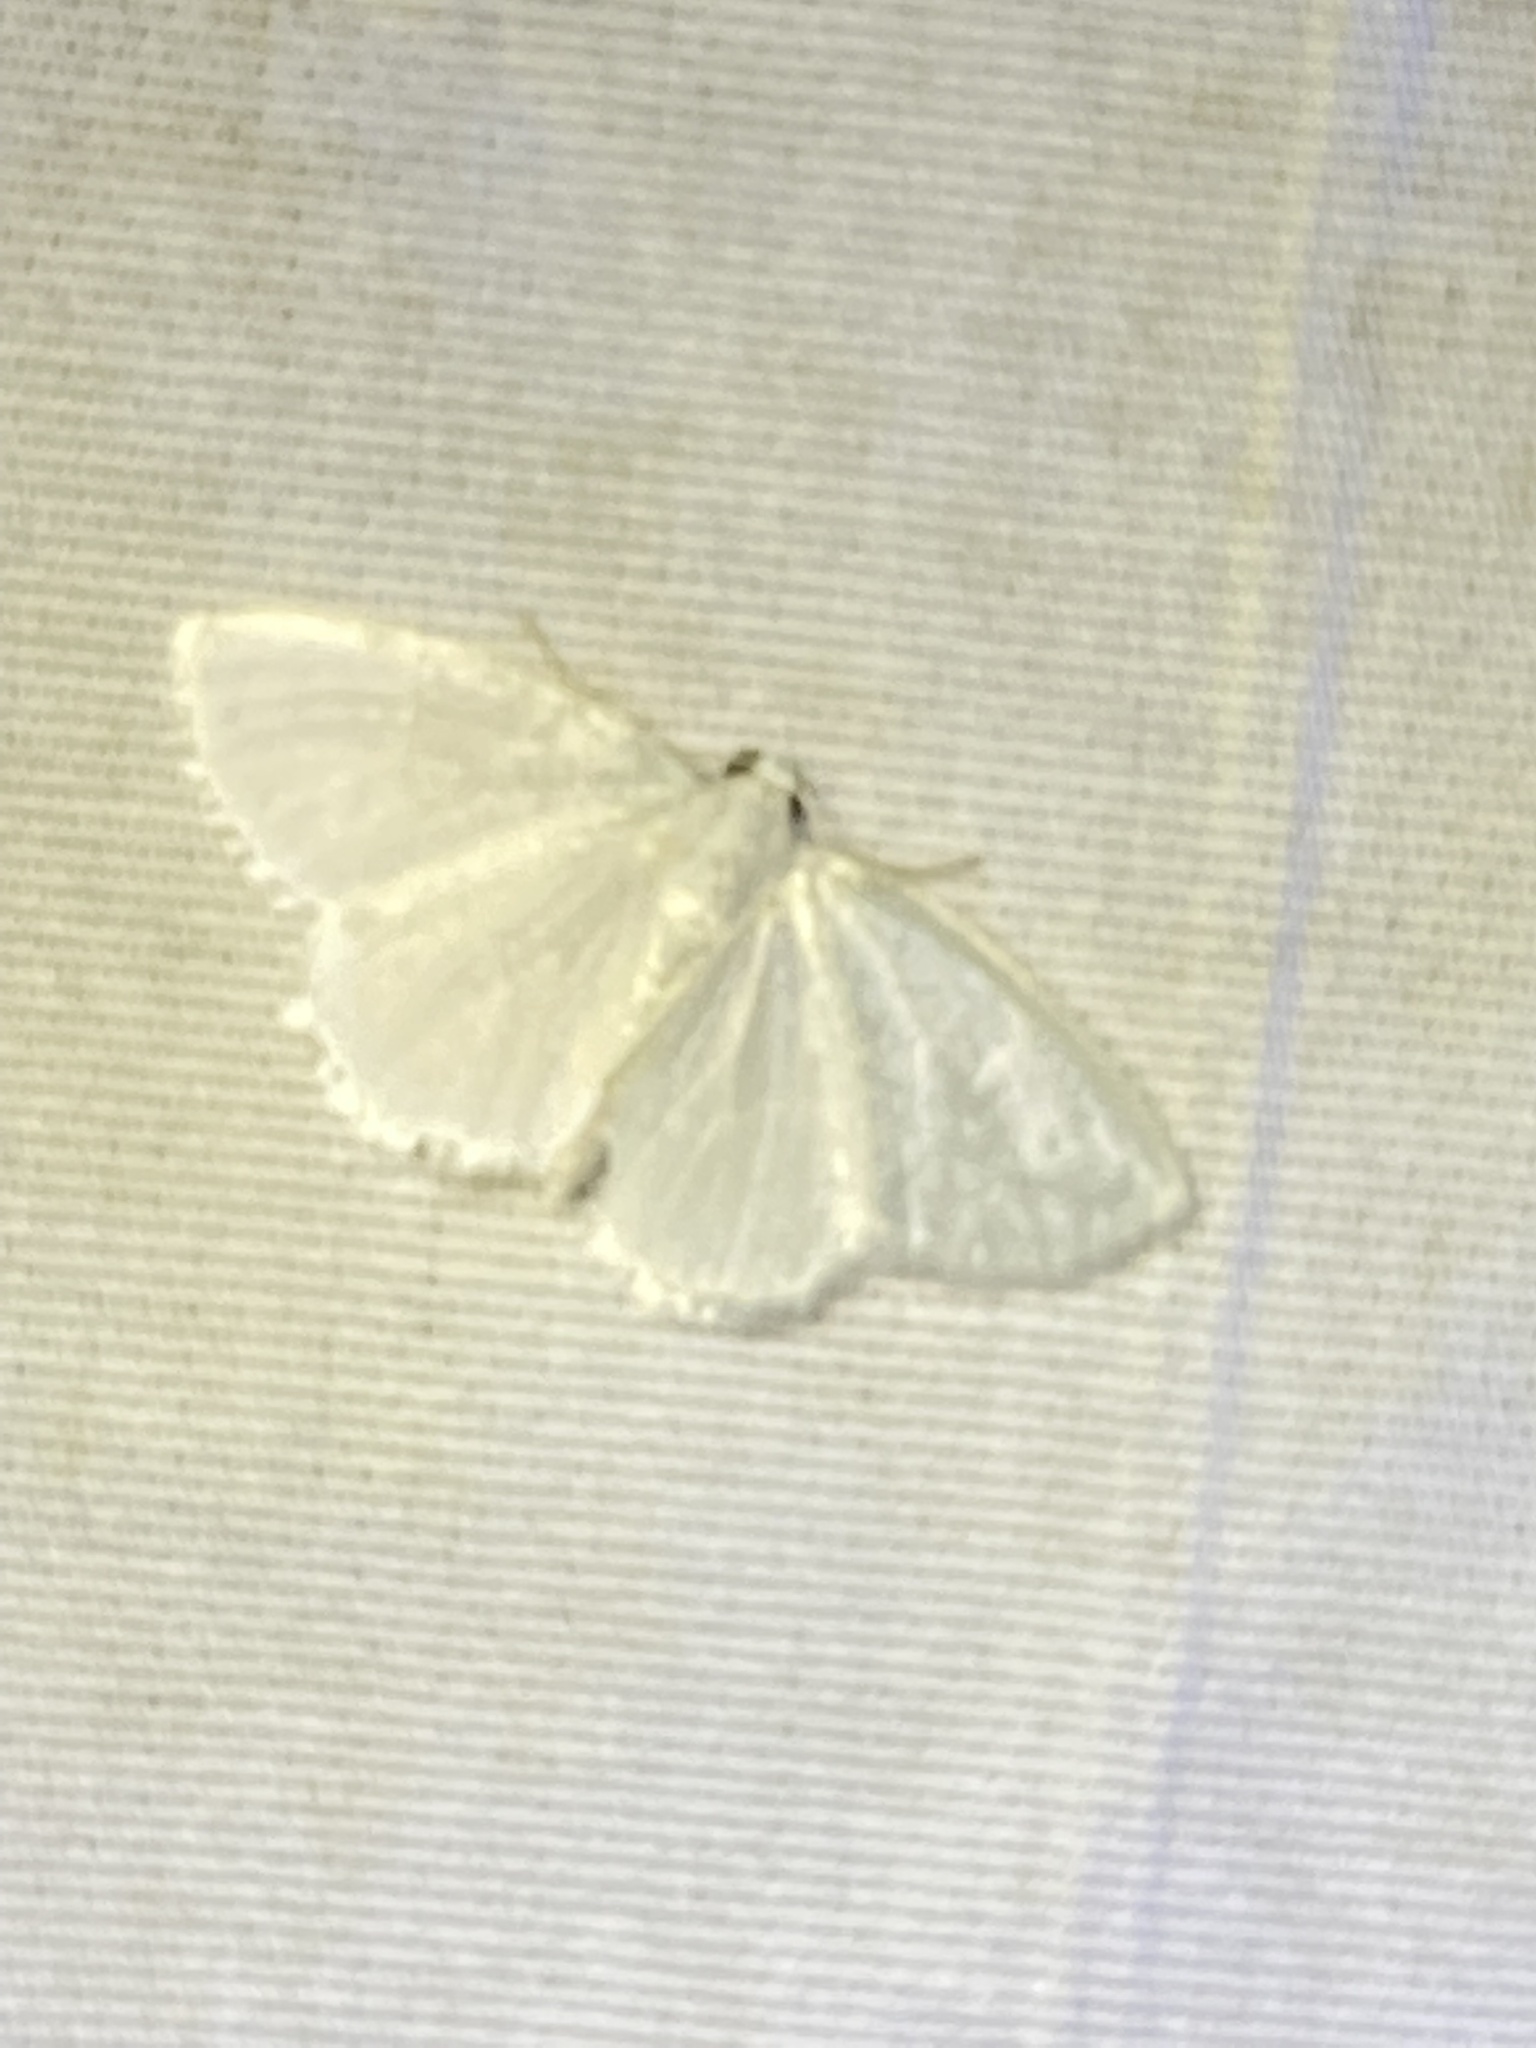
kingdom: Animalia
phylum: Arthropoda
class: Insecta
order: Lepidoptera
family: Geometridae
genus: Lomographa
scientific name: Lomographa vestaliata
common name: White spring moth
